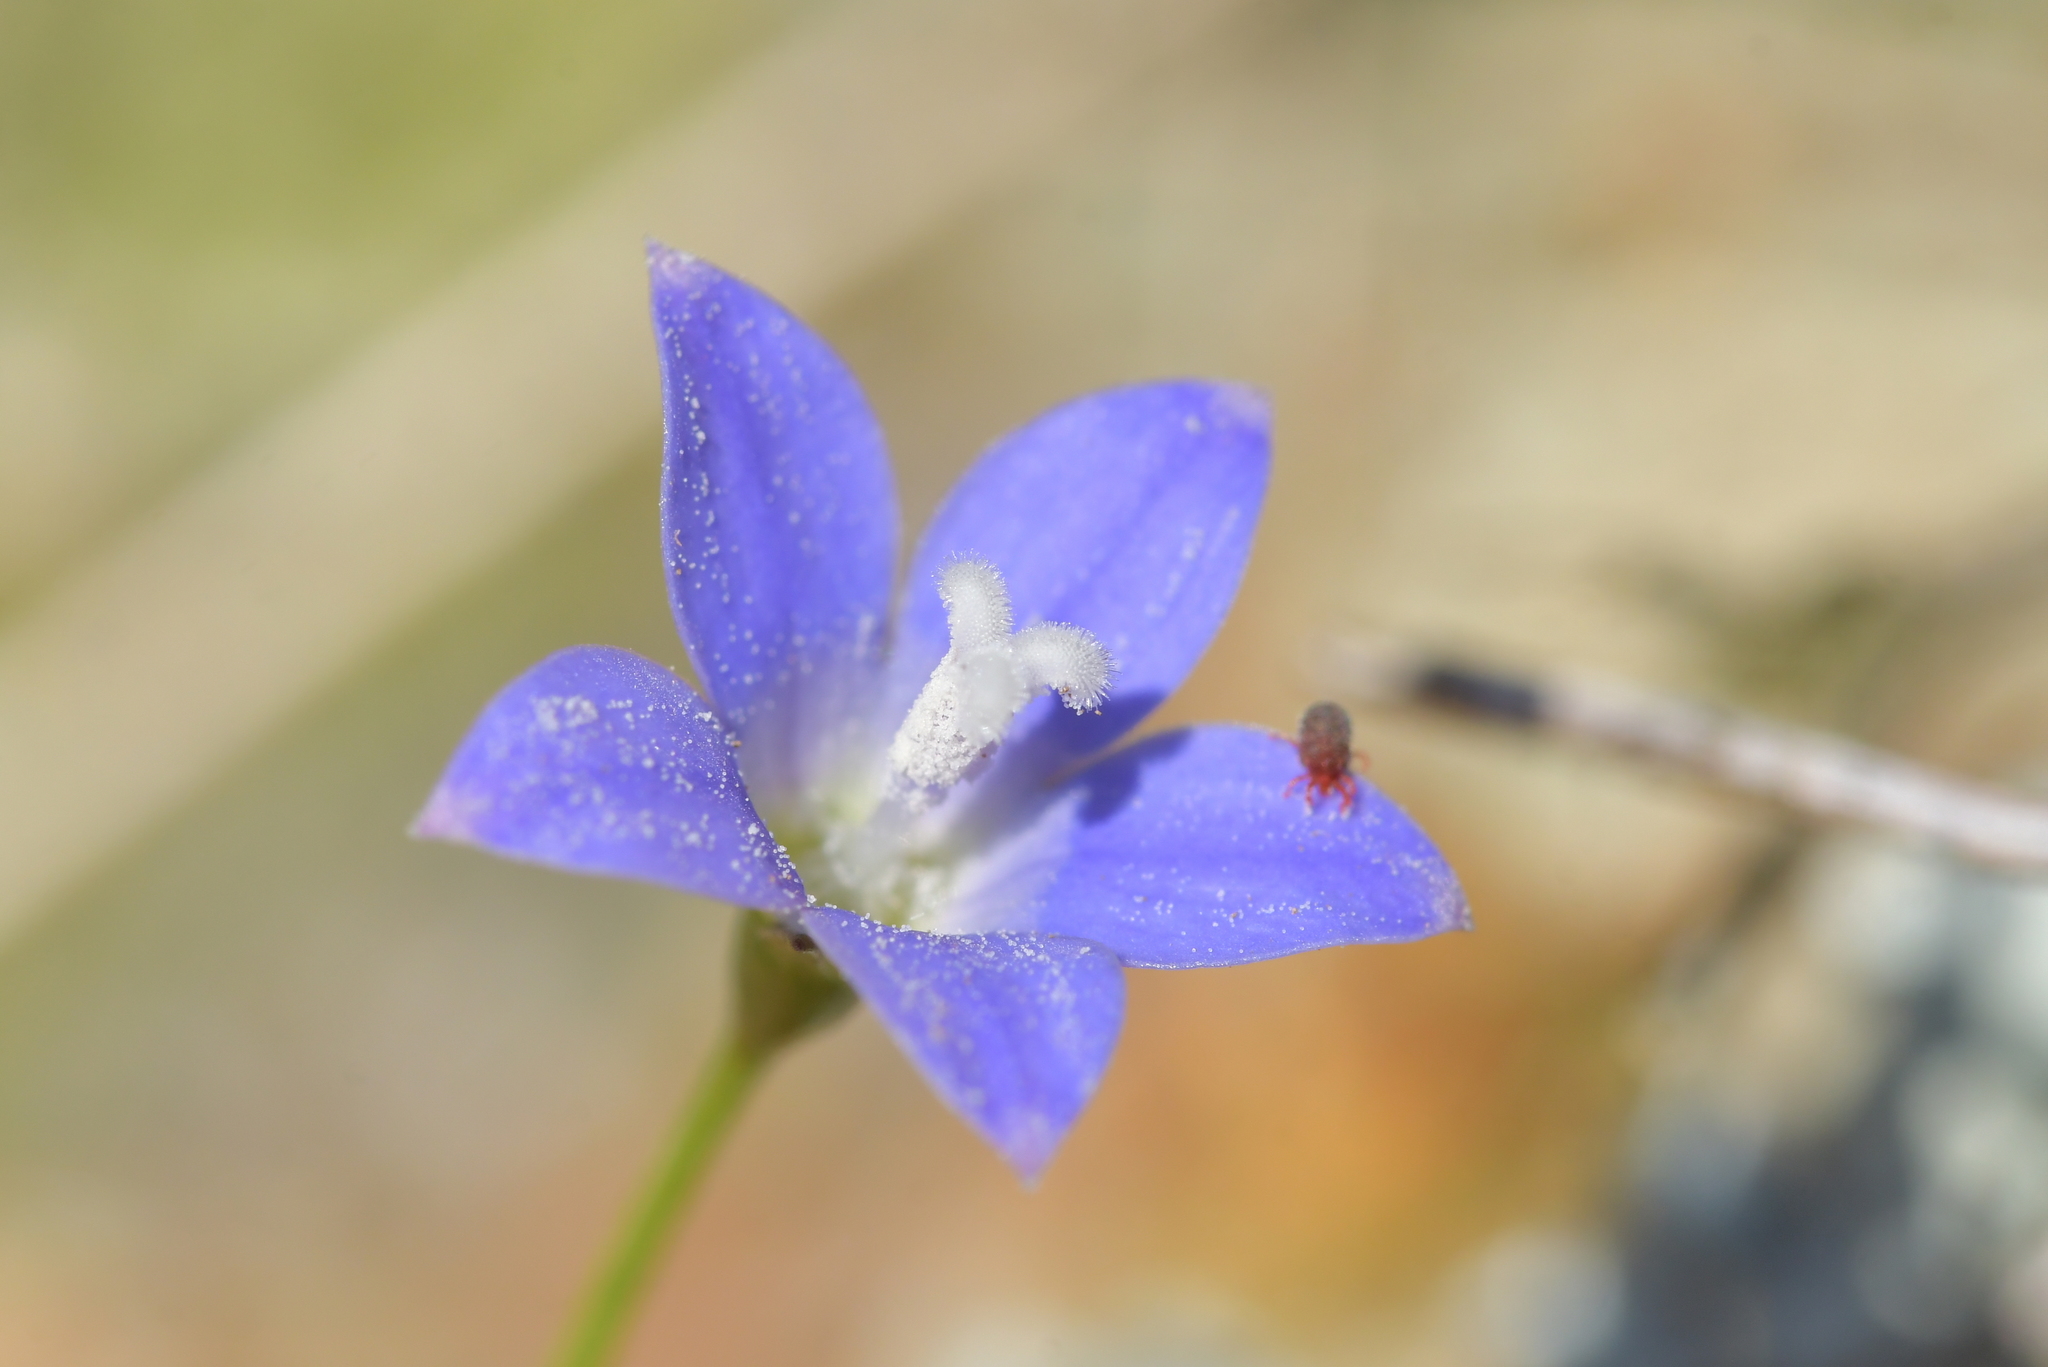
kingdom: Plantae
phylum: Tracheophyta
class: Magnoliopsida
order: Asterales
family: Campanulaceae
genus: Wahlenbergia
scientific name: Wahlenbergia violacea
